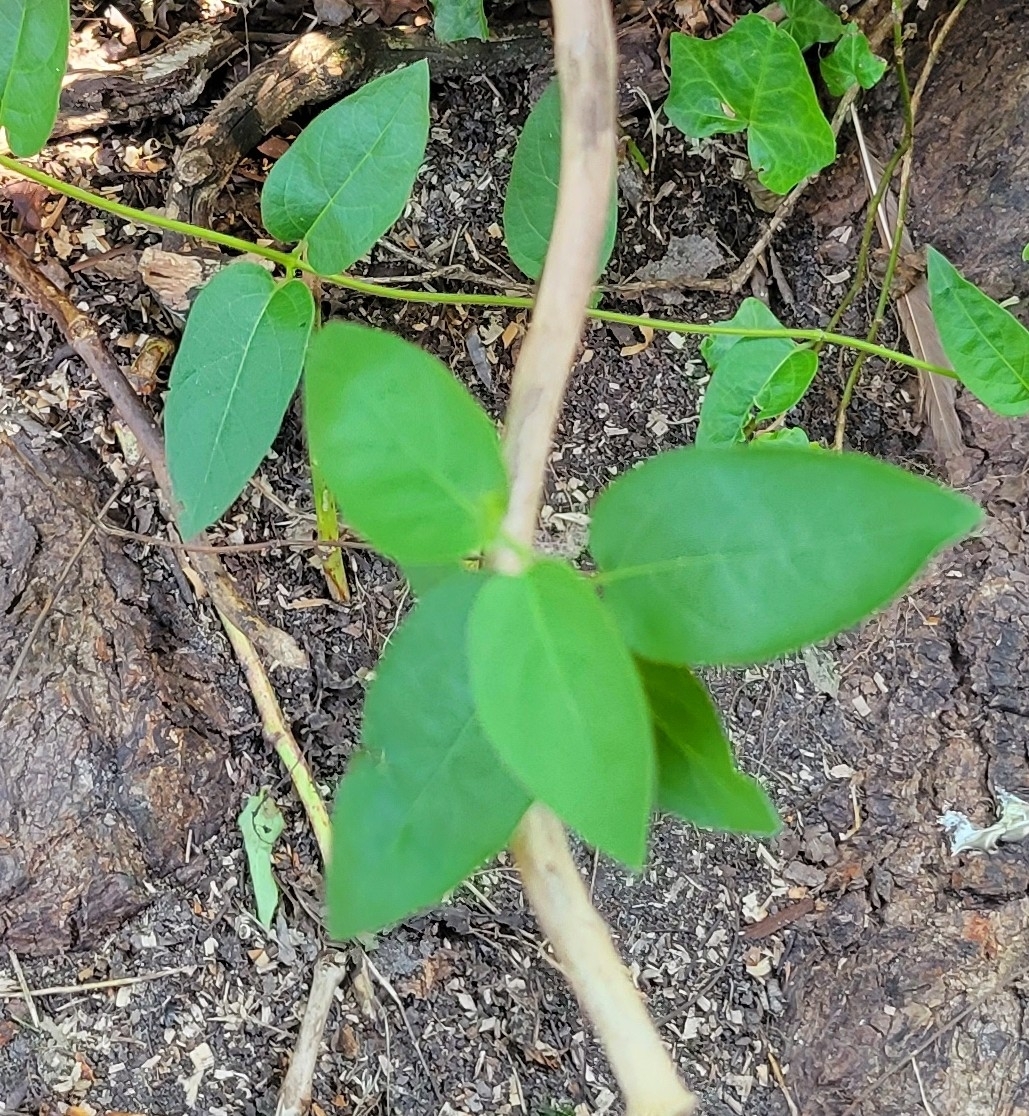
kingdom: Plantae
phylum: Tracheophyta
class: Magnoliopsida
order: Dipsacales
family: Caprifoliaceae
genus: Lonicera
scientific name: Lonicera japonica
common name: Japanese honeysuckle
